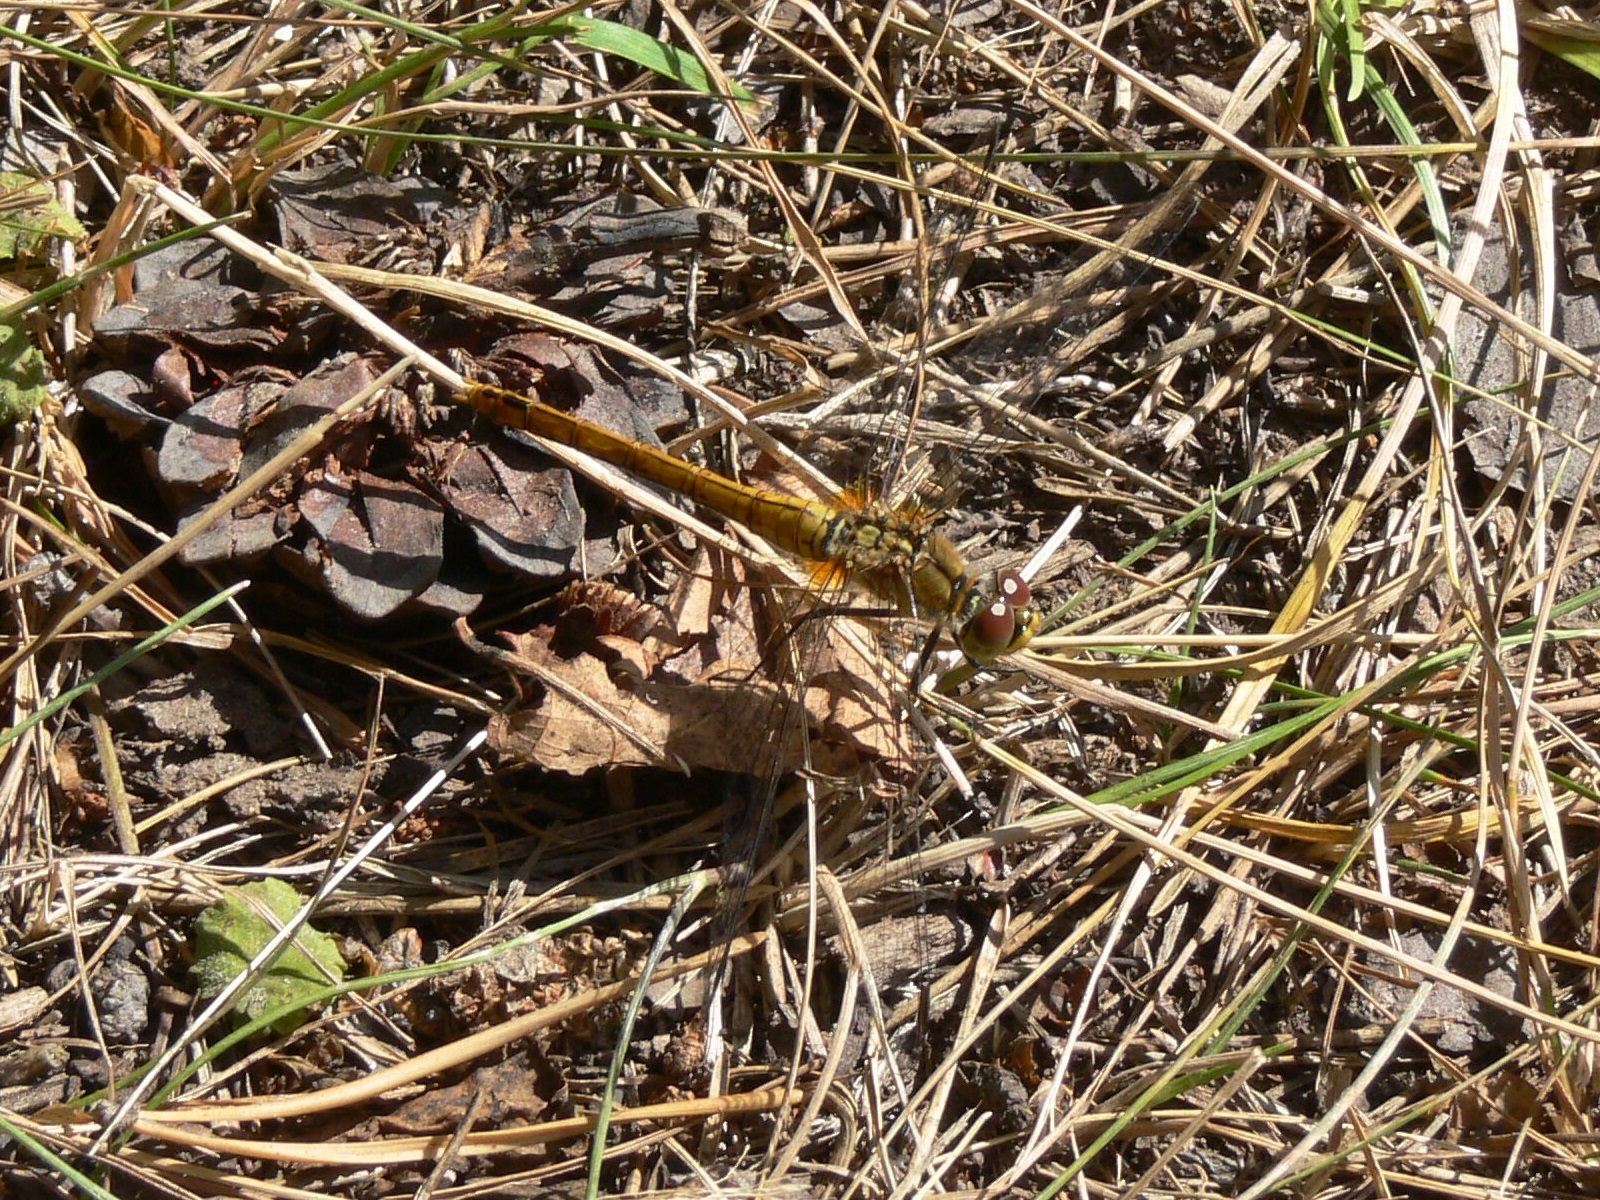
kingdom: Animalia
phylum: Arthropoda
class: Insecta
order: Odonata
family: Libellulidae
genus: Sympetrum
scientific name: Sympetrum sanguineum
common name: Ruddy darter
